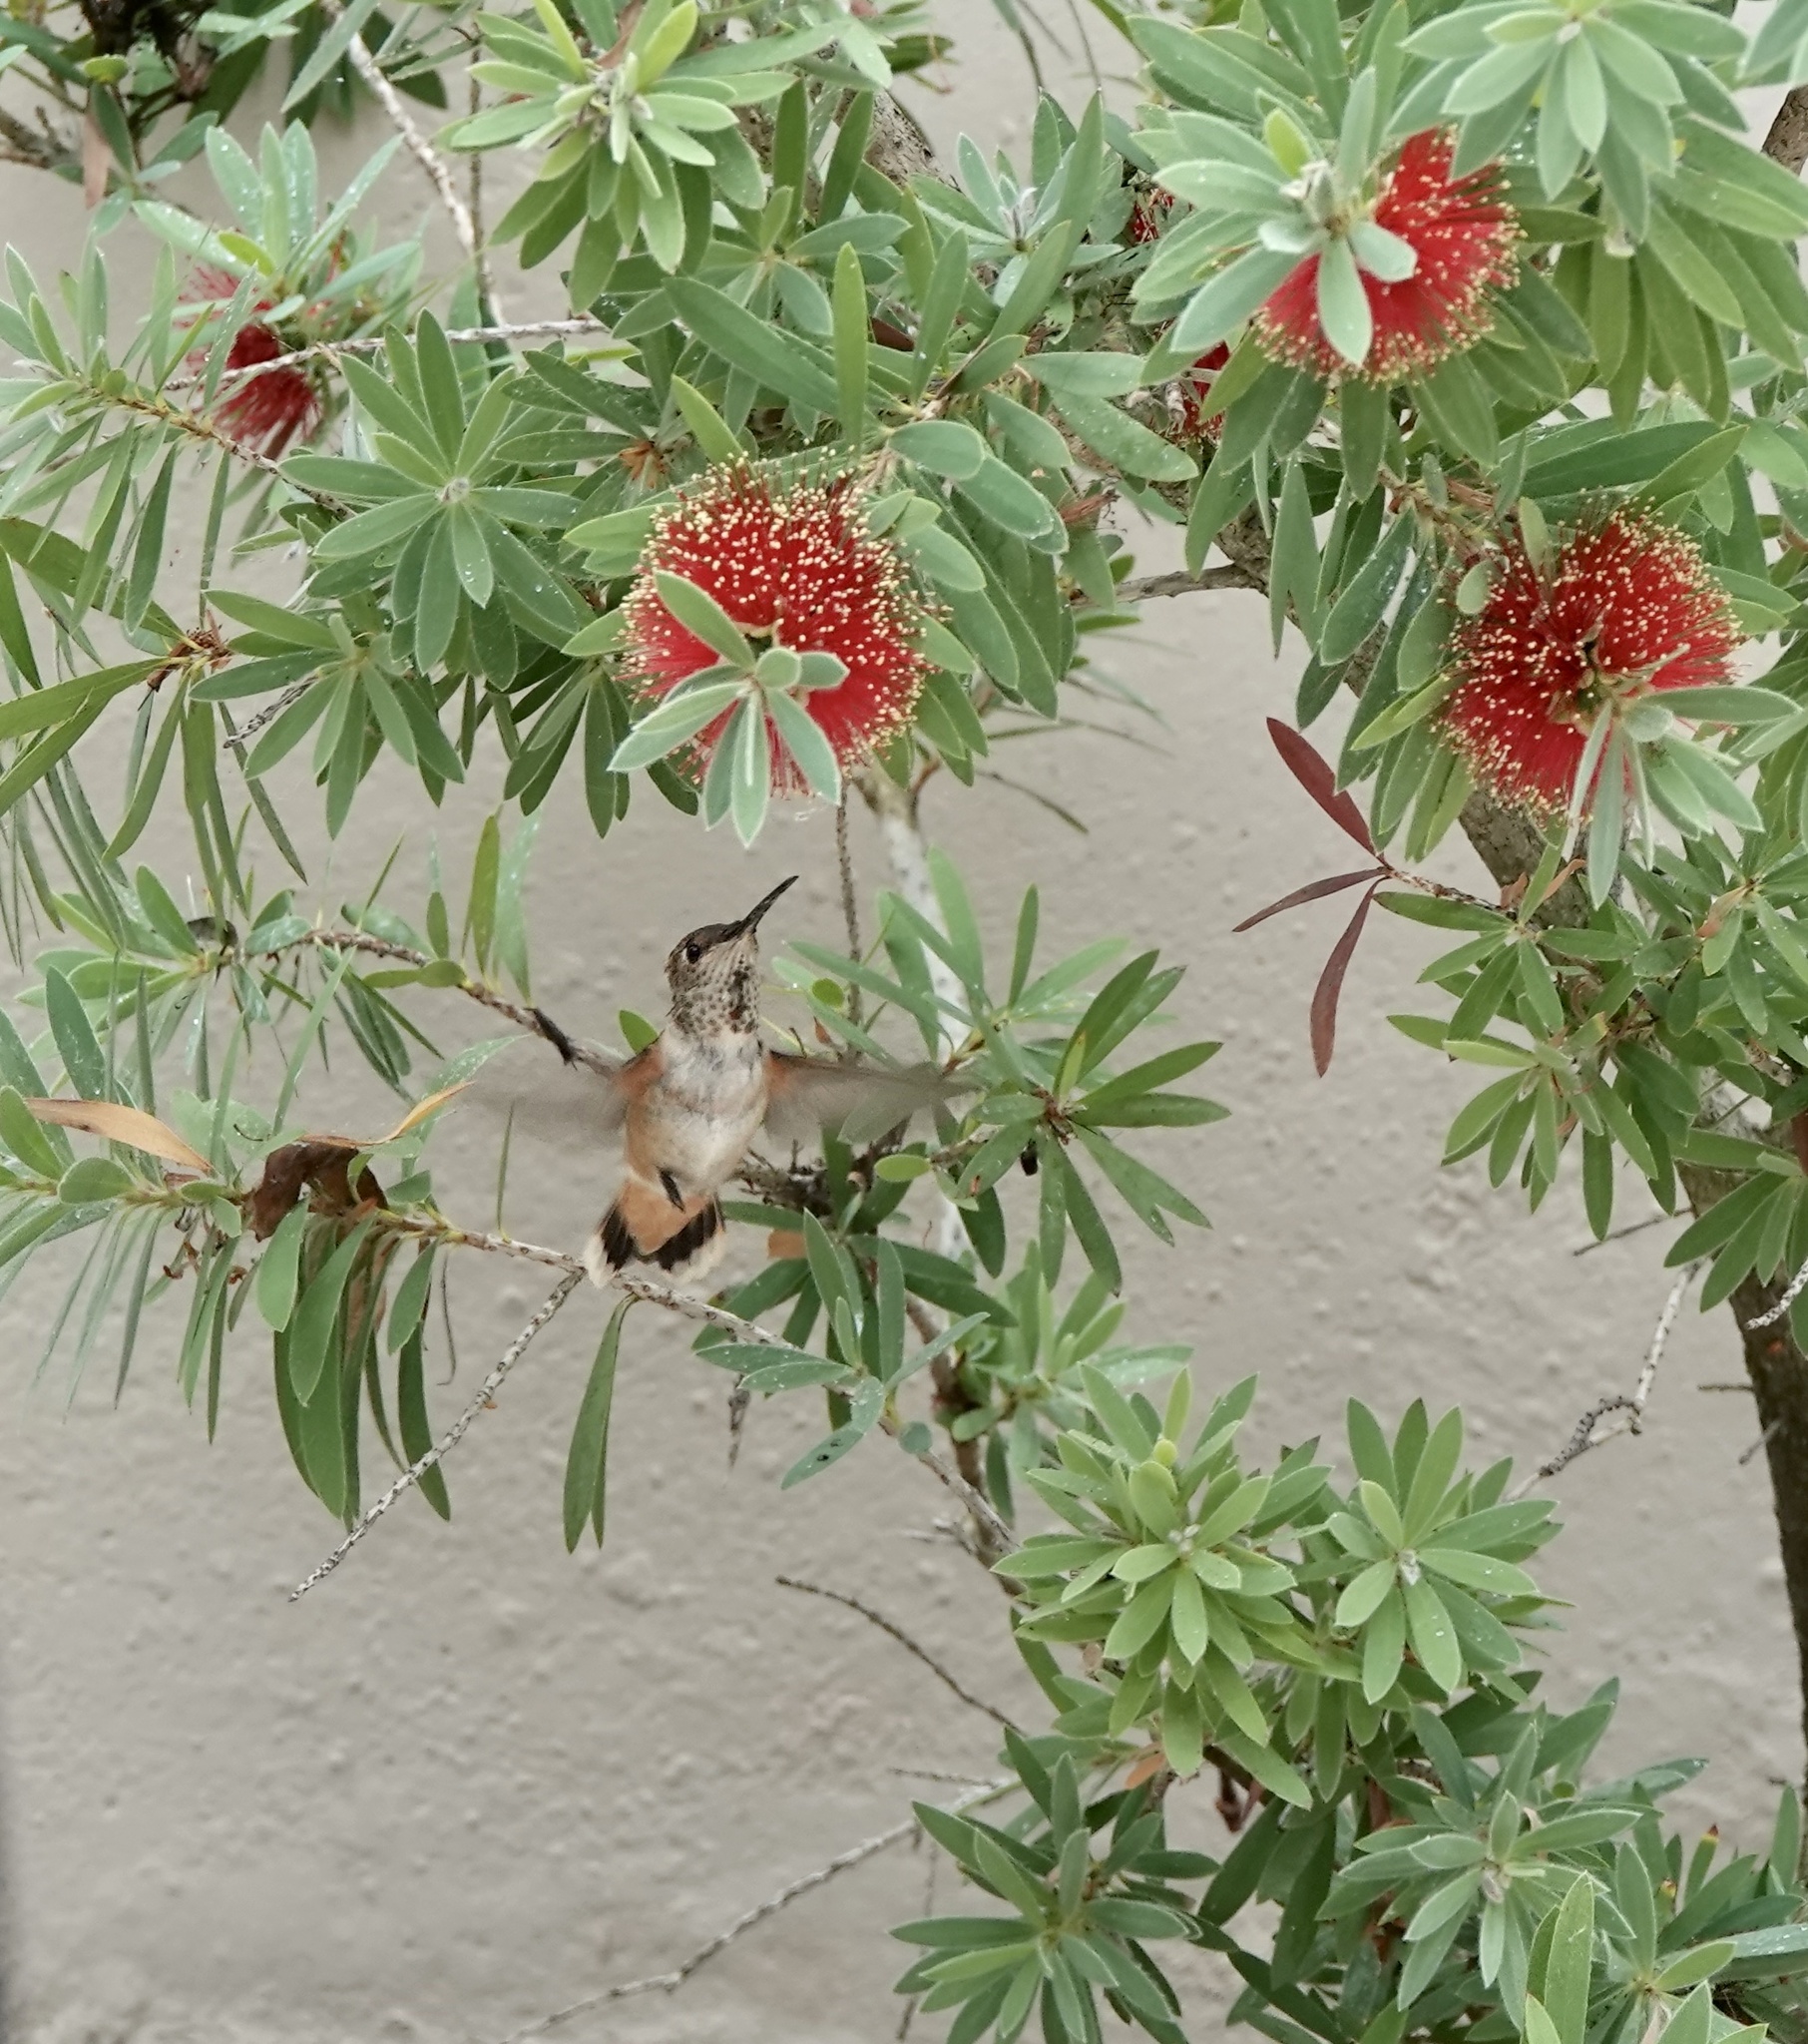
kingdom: Animalia
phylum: Chordata
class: Aves
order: Apodiformes
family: Trochilidae
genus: Selasphorus
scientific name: Selasphorus
